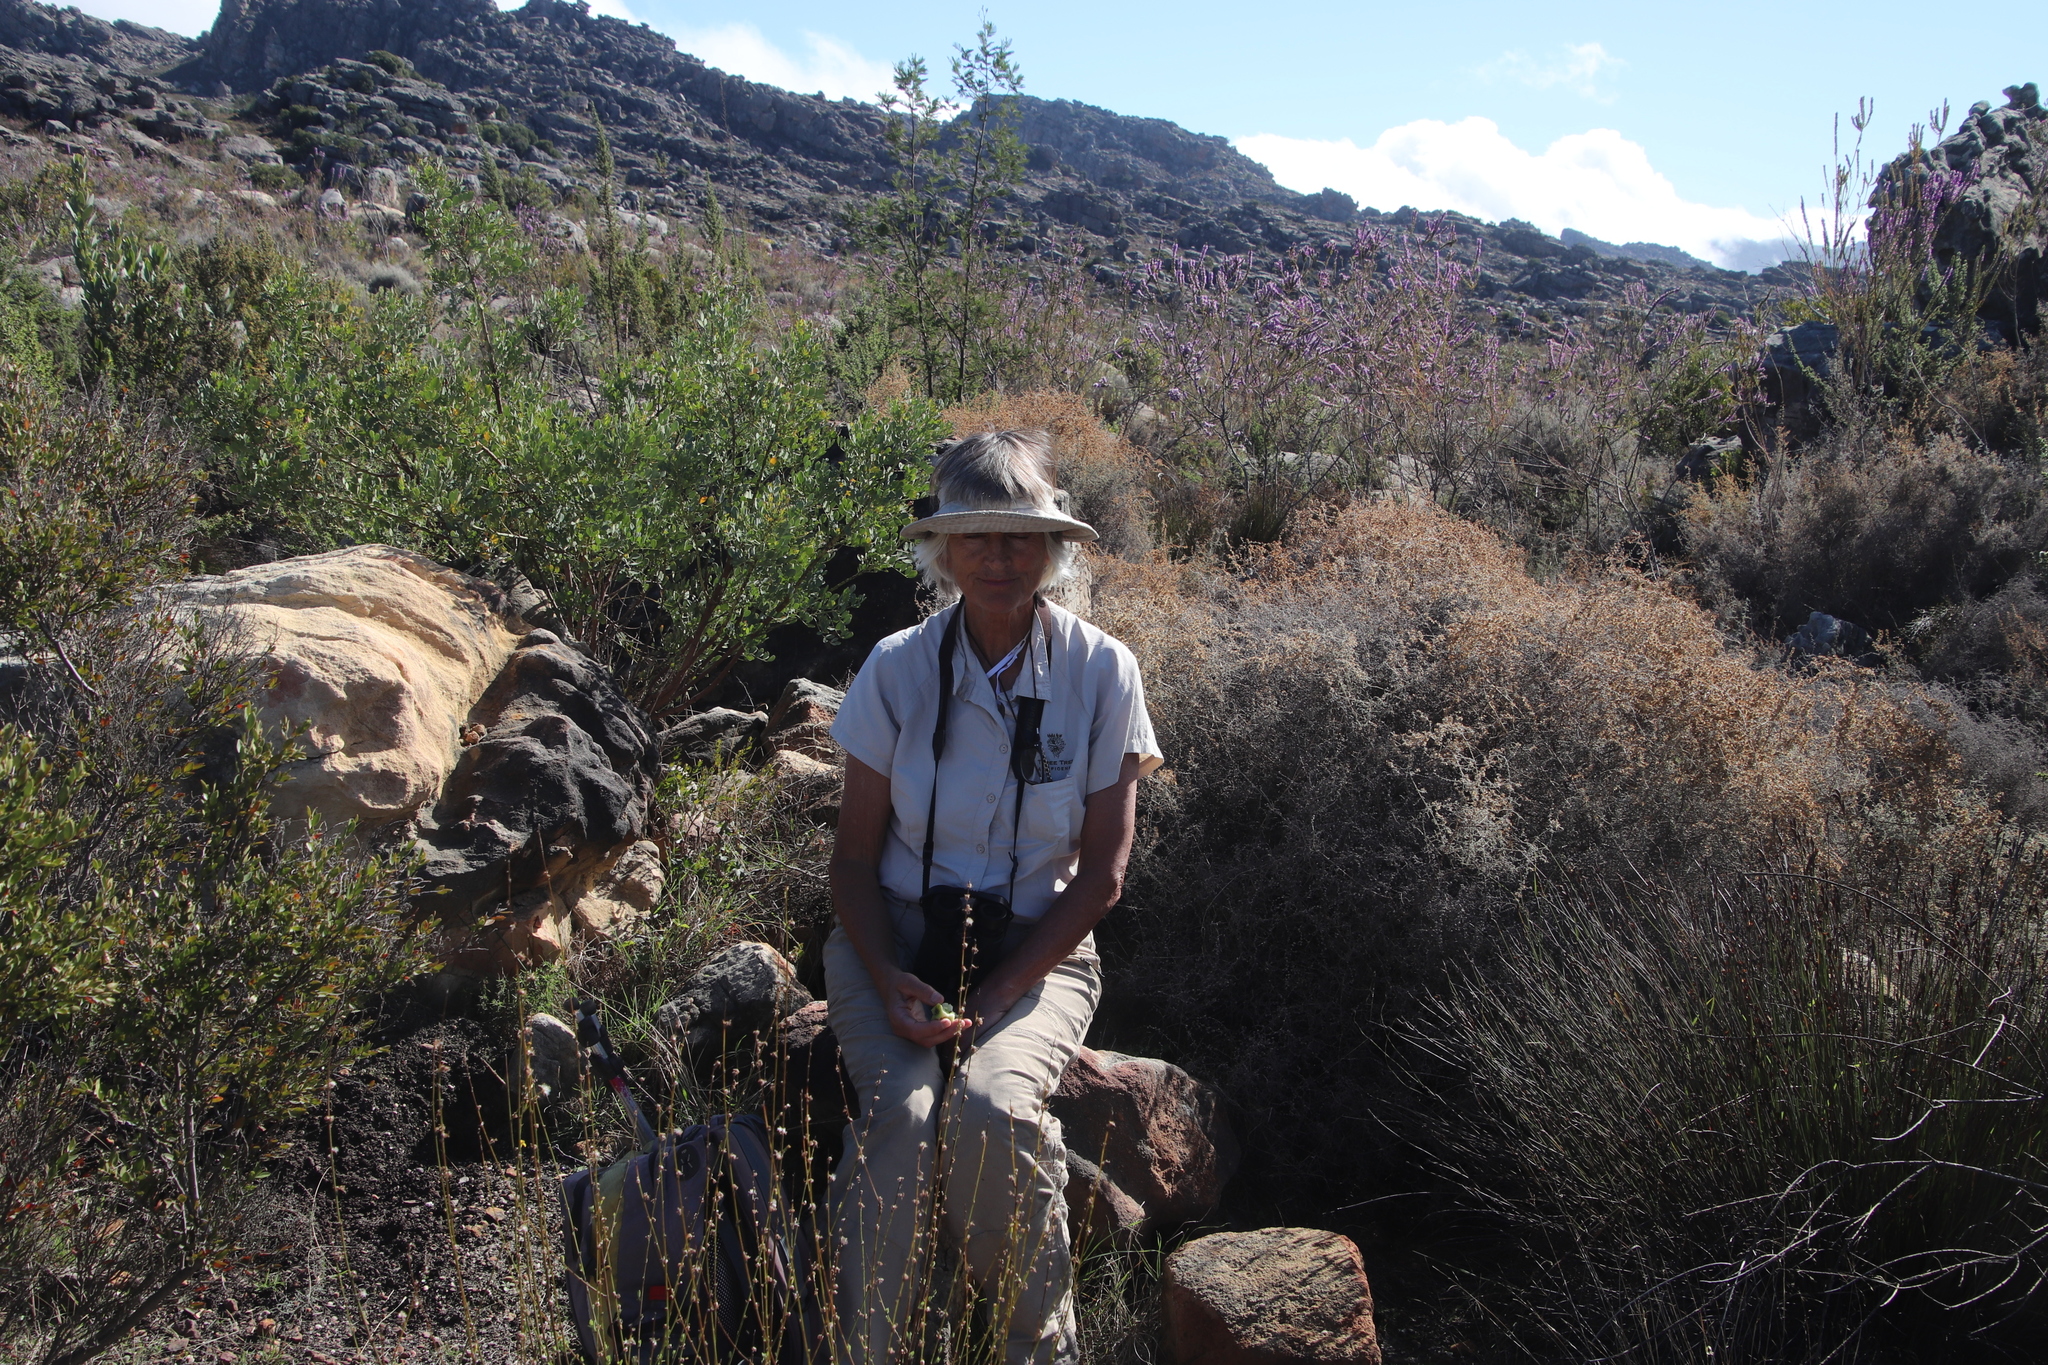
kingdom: Plantae
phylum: Tracheophyta
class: Magnoliopsida
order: Asterales
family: Asteraceae
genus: Seriphium
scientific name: Seriphium plumosum
